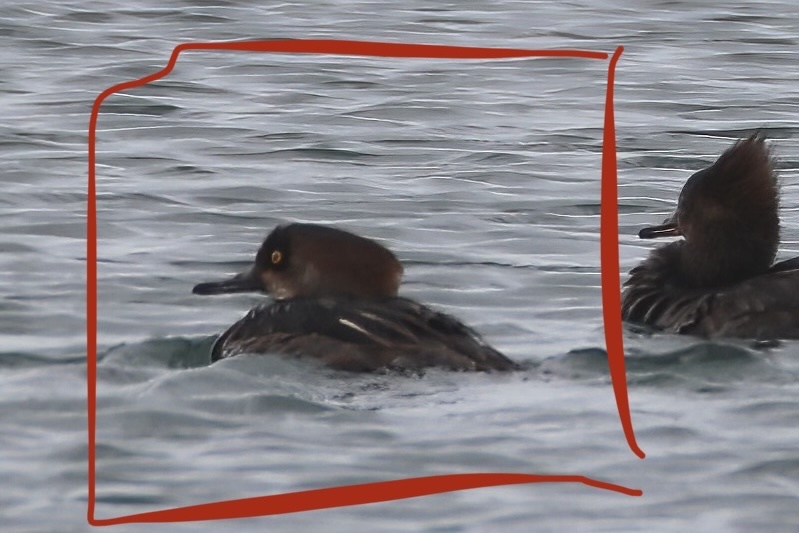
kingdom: Animalia
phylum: Chordata
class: Aves
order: Anseriformes
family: Anatidae
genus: Lophodytes
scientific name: Lophodytes cucullatus
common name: Hooded merganser
